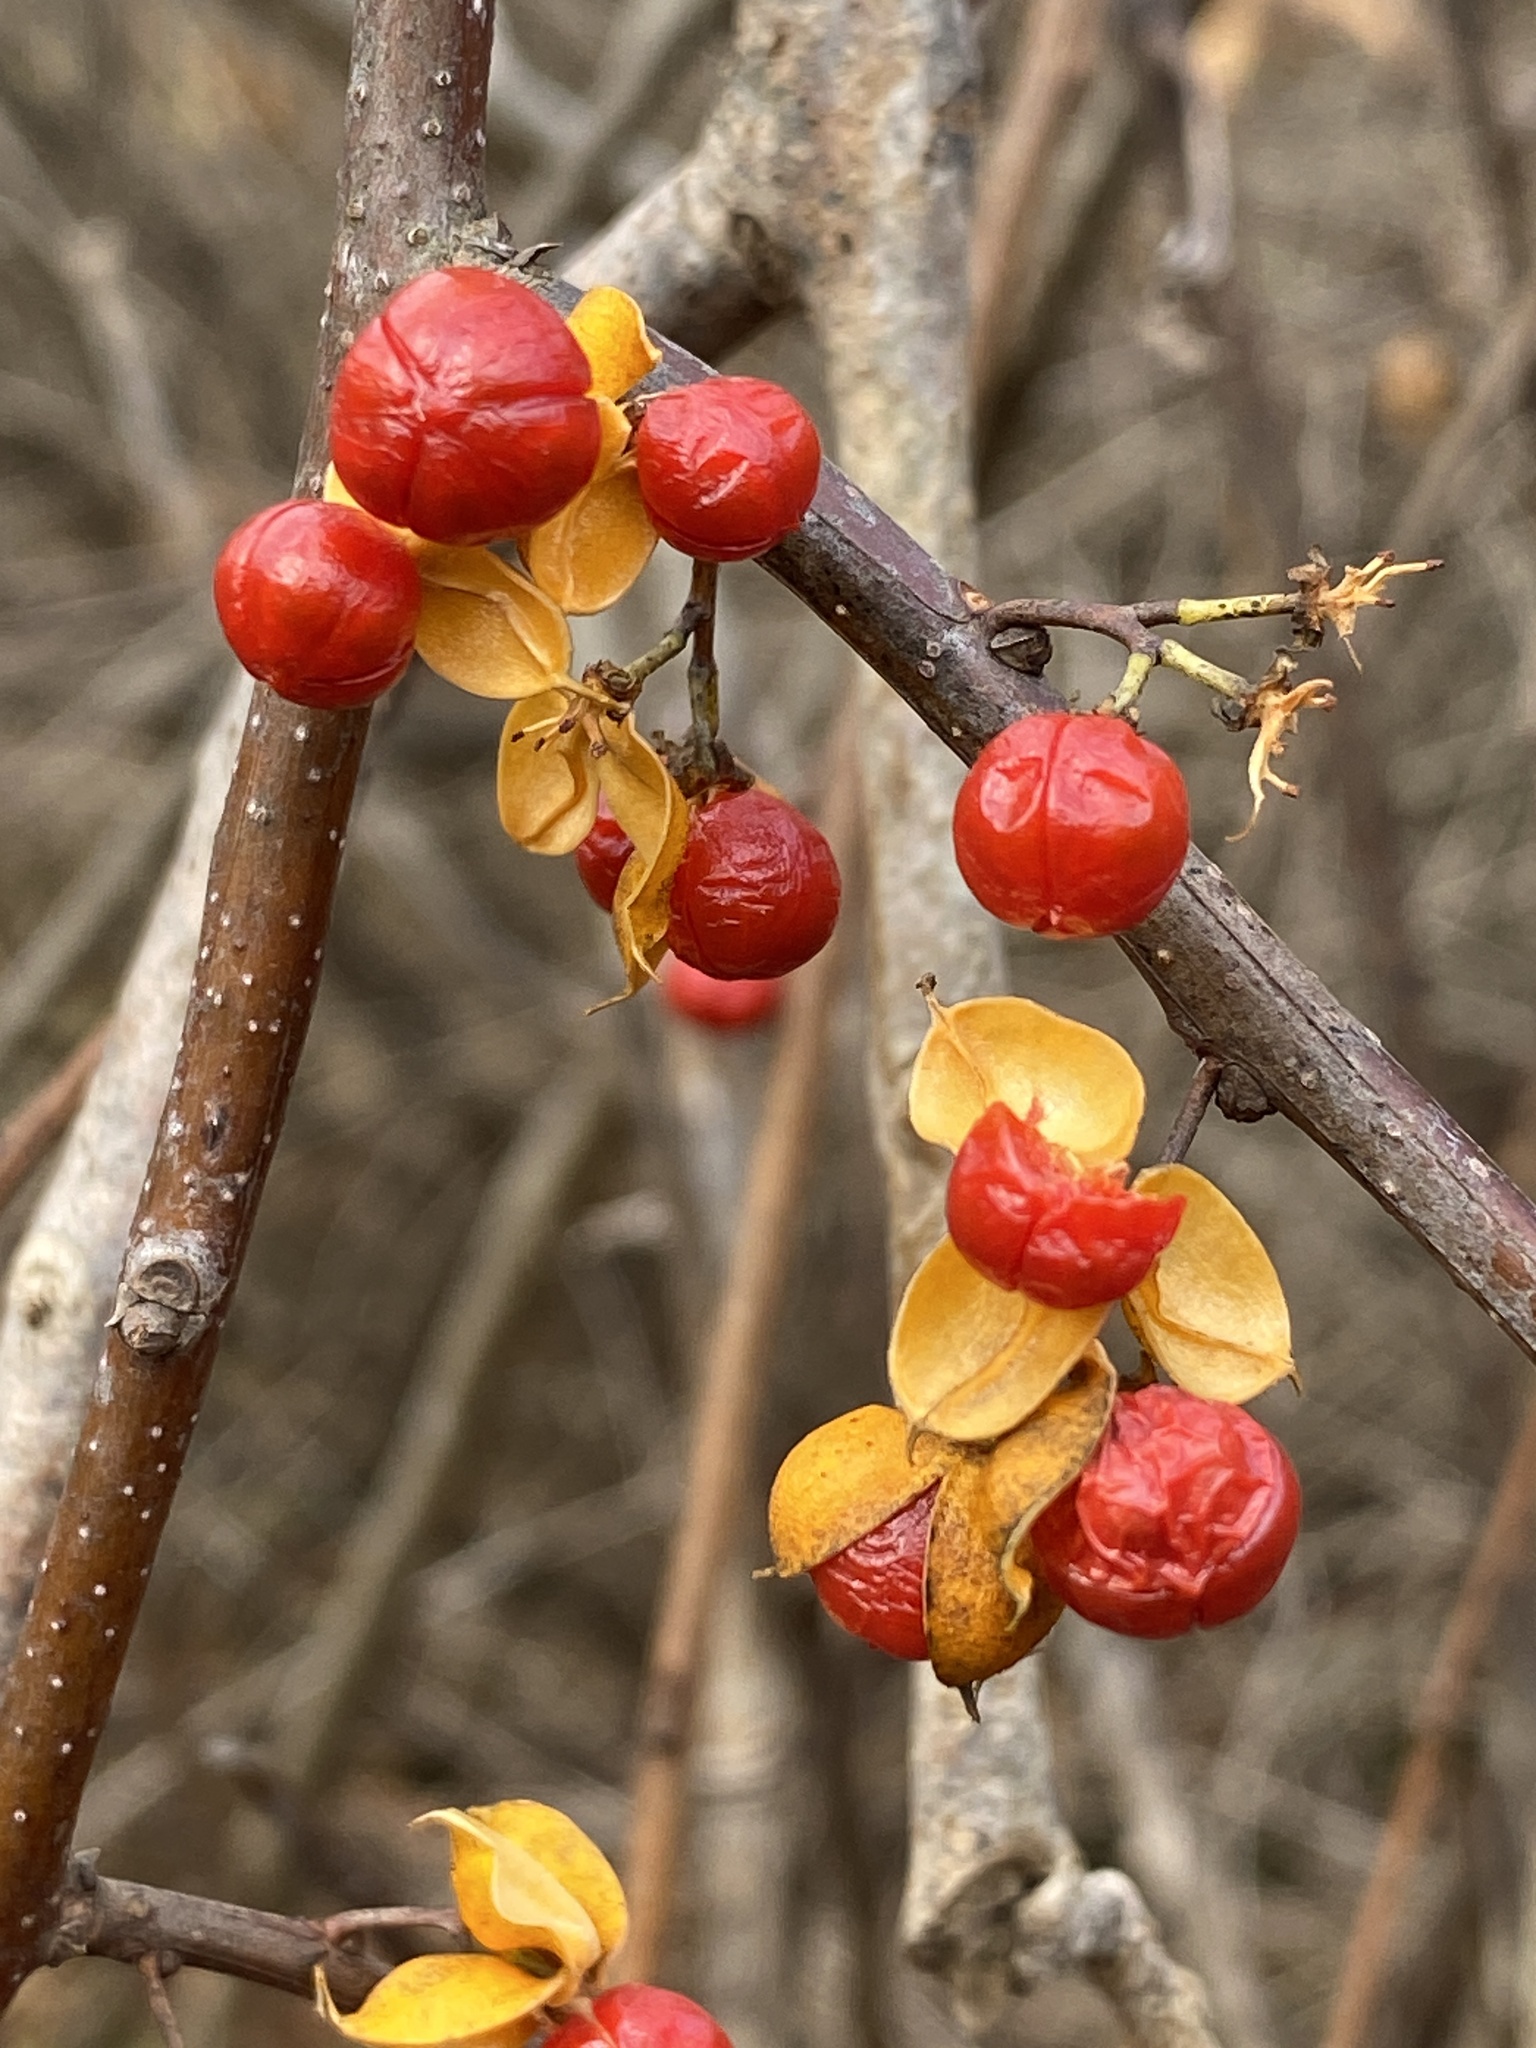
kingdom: Plantae
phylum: Tracheophyta
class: Magnoliopsida
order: Celastrales
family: Celastraceae
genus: Celastrus
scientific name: Celastrus orbiculatus
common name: Oriental bittersweet
